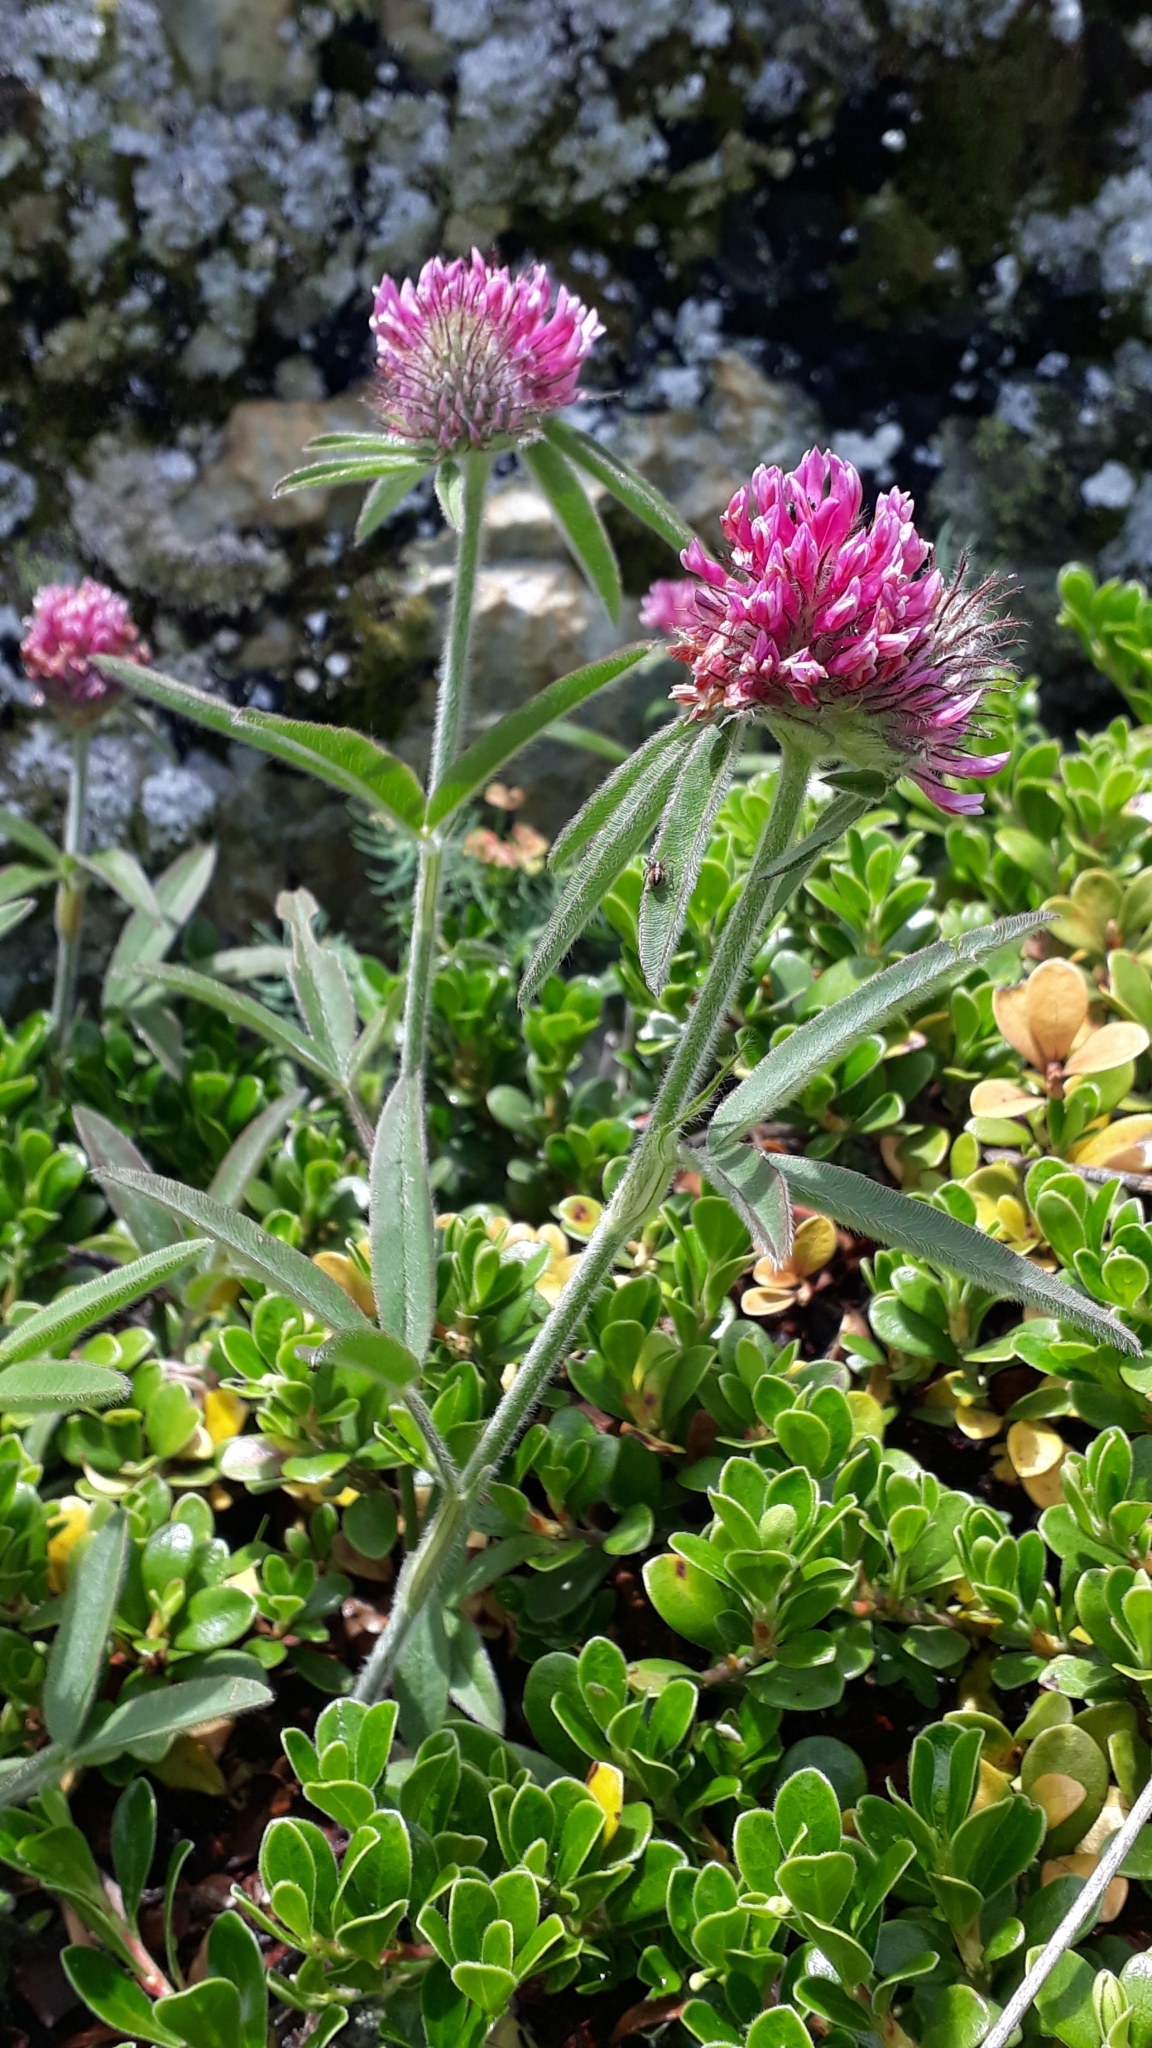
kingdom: Plantae
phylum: Tracheophyta
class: Magnoliopsida
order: Fabales
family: Fabaceae
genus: Trifolium
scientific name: Trifolium alpestre
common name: Owl-head clover
